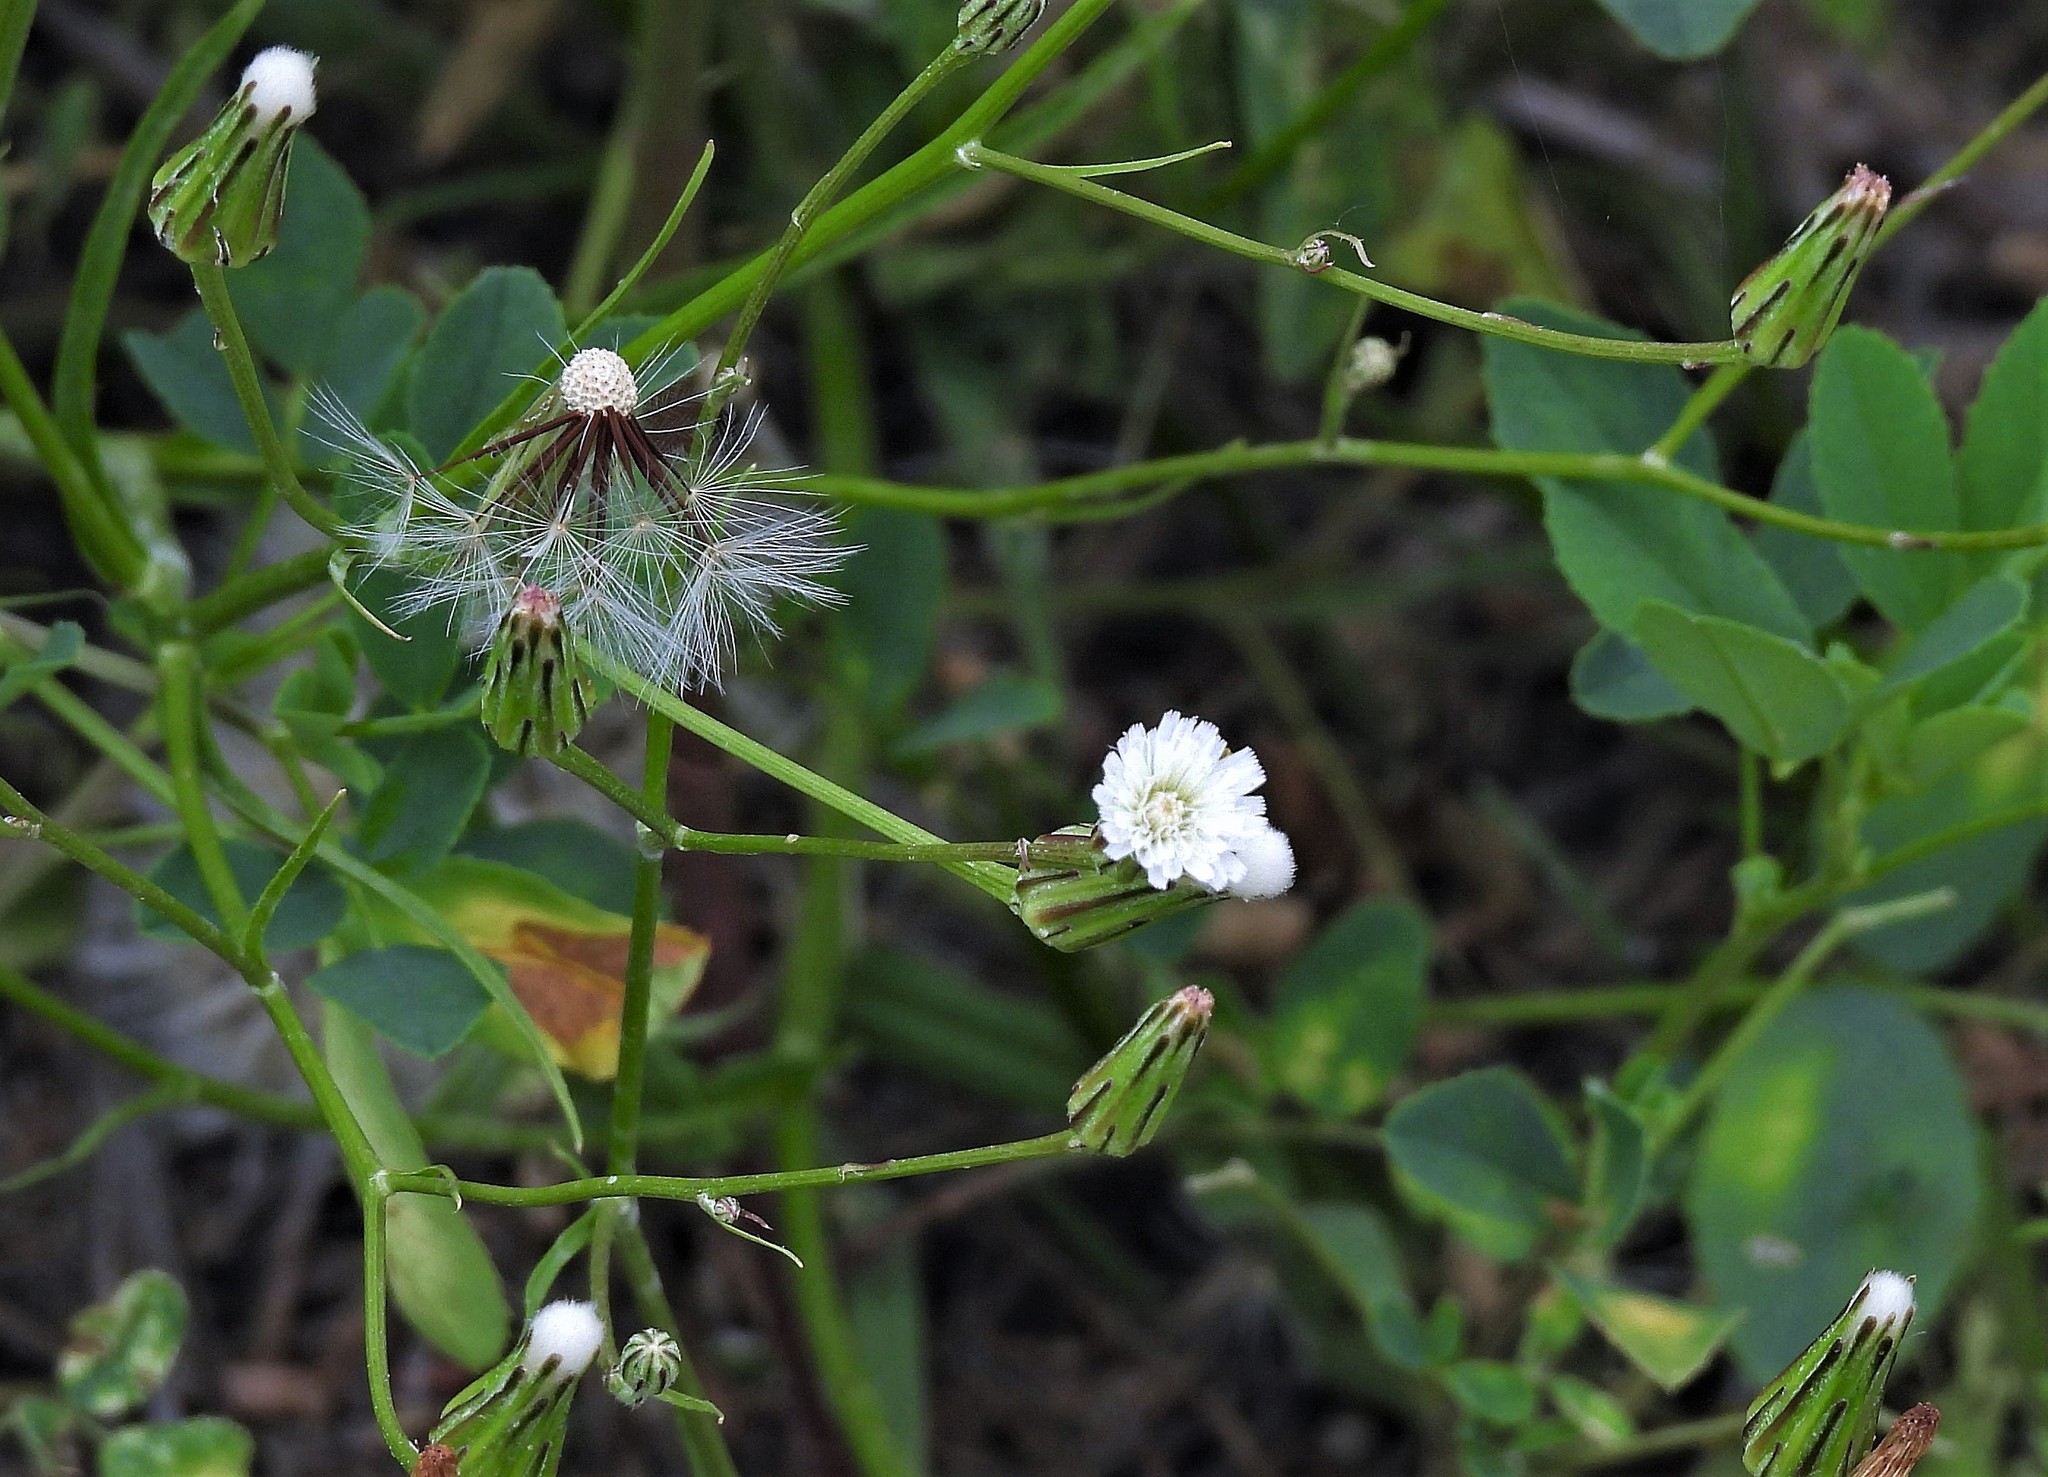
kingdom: Plantae
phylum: Tracheophyta
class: Magnoliopsida
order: Asterales
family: Asteraceae
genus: Hypochaeris
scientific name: Hypochaeris albiflora
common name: White flatweed
